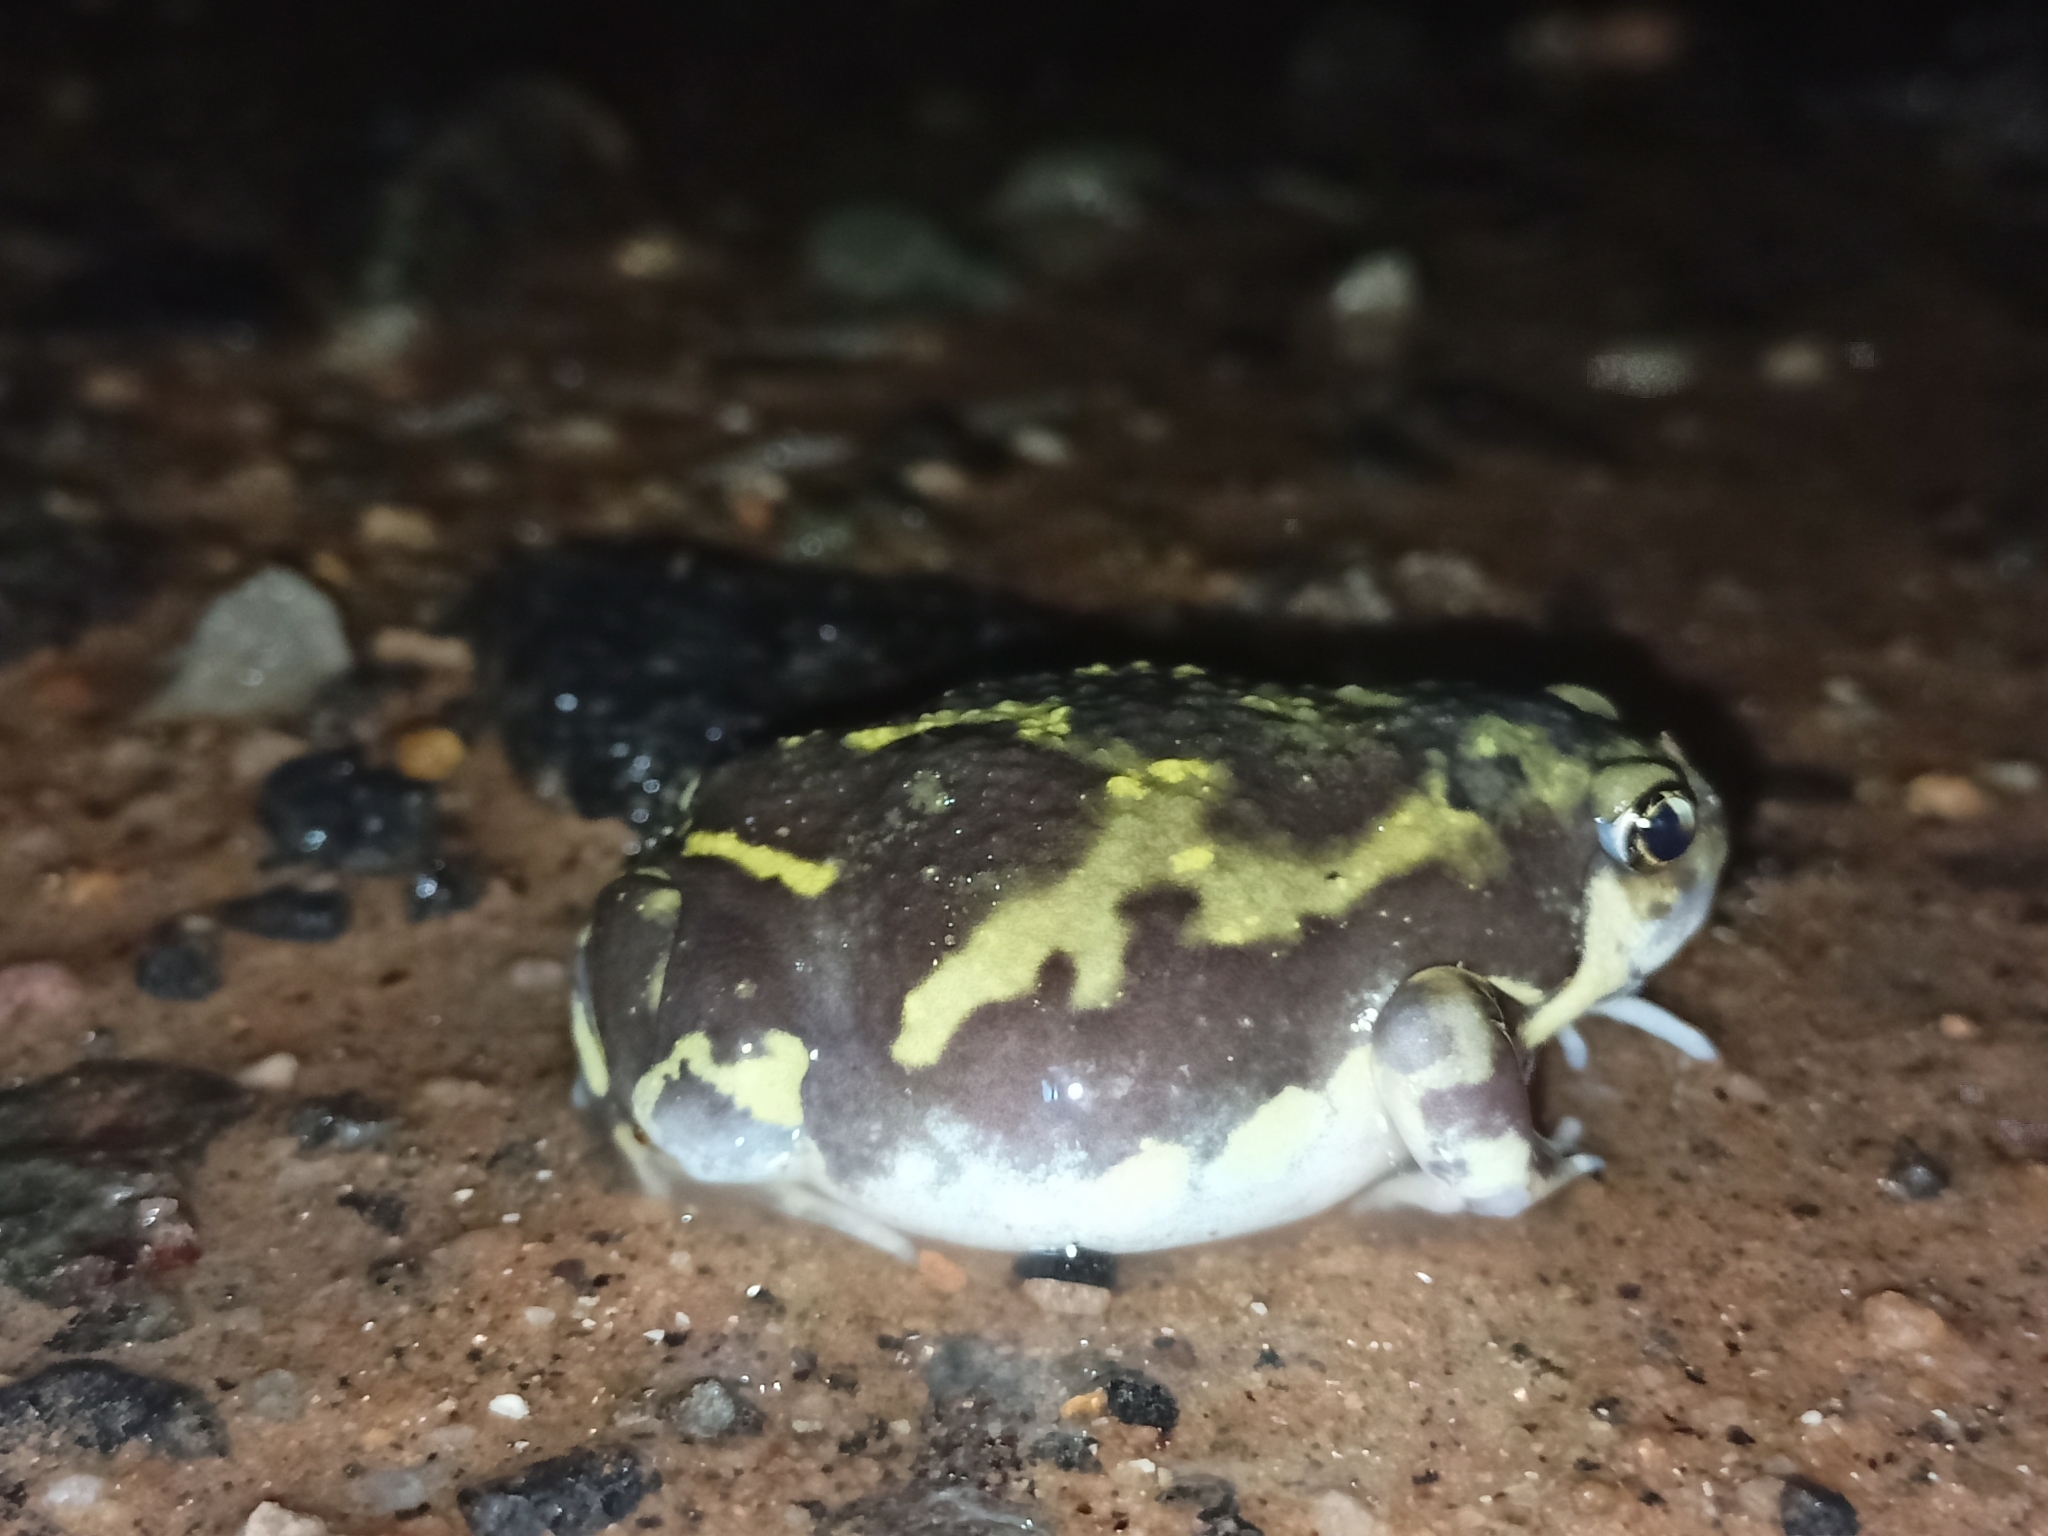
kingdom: Animalia
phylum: Chordata
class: Amphibia
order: Anura
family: Microhylidae
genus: Uperodon
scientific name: Uperodon systoma
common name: Balloon frog
